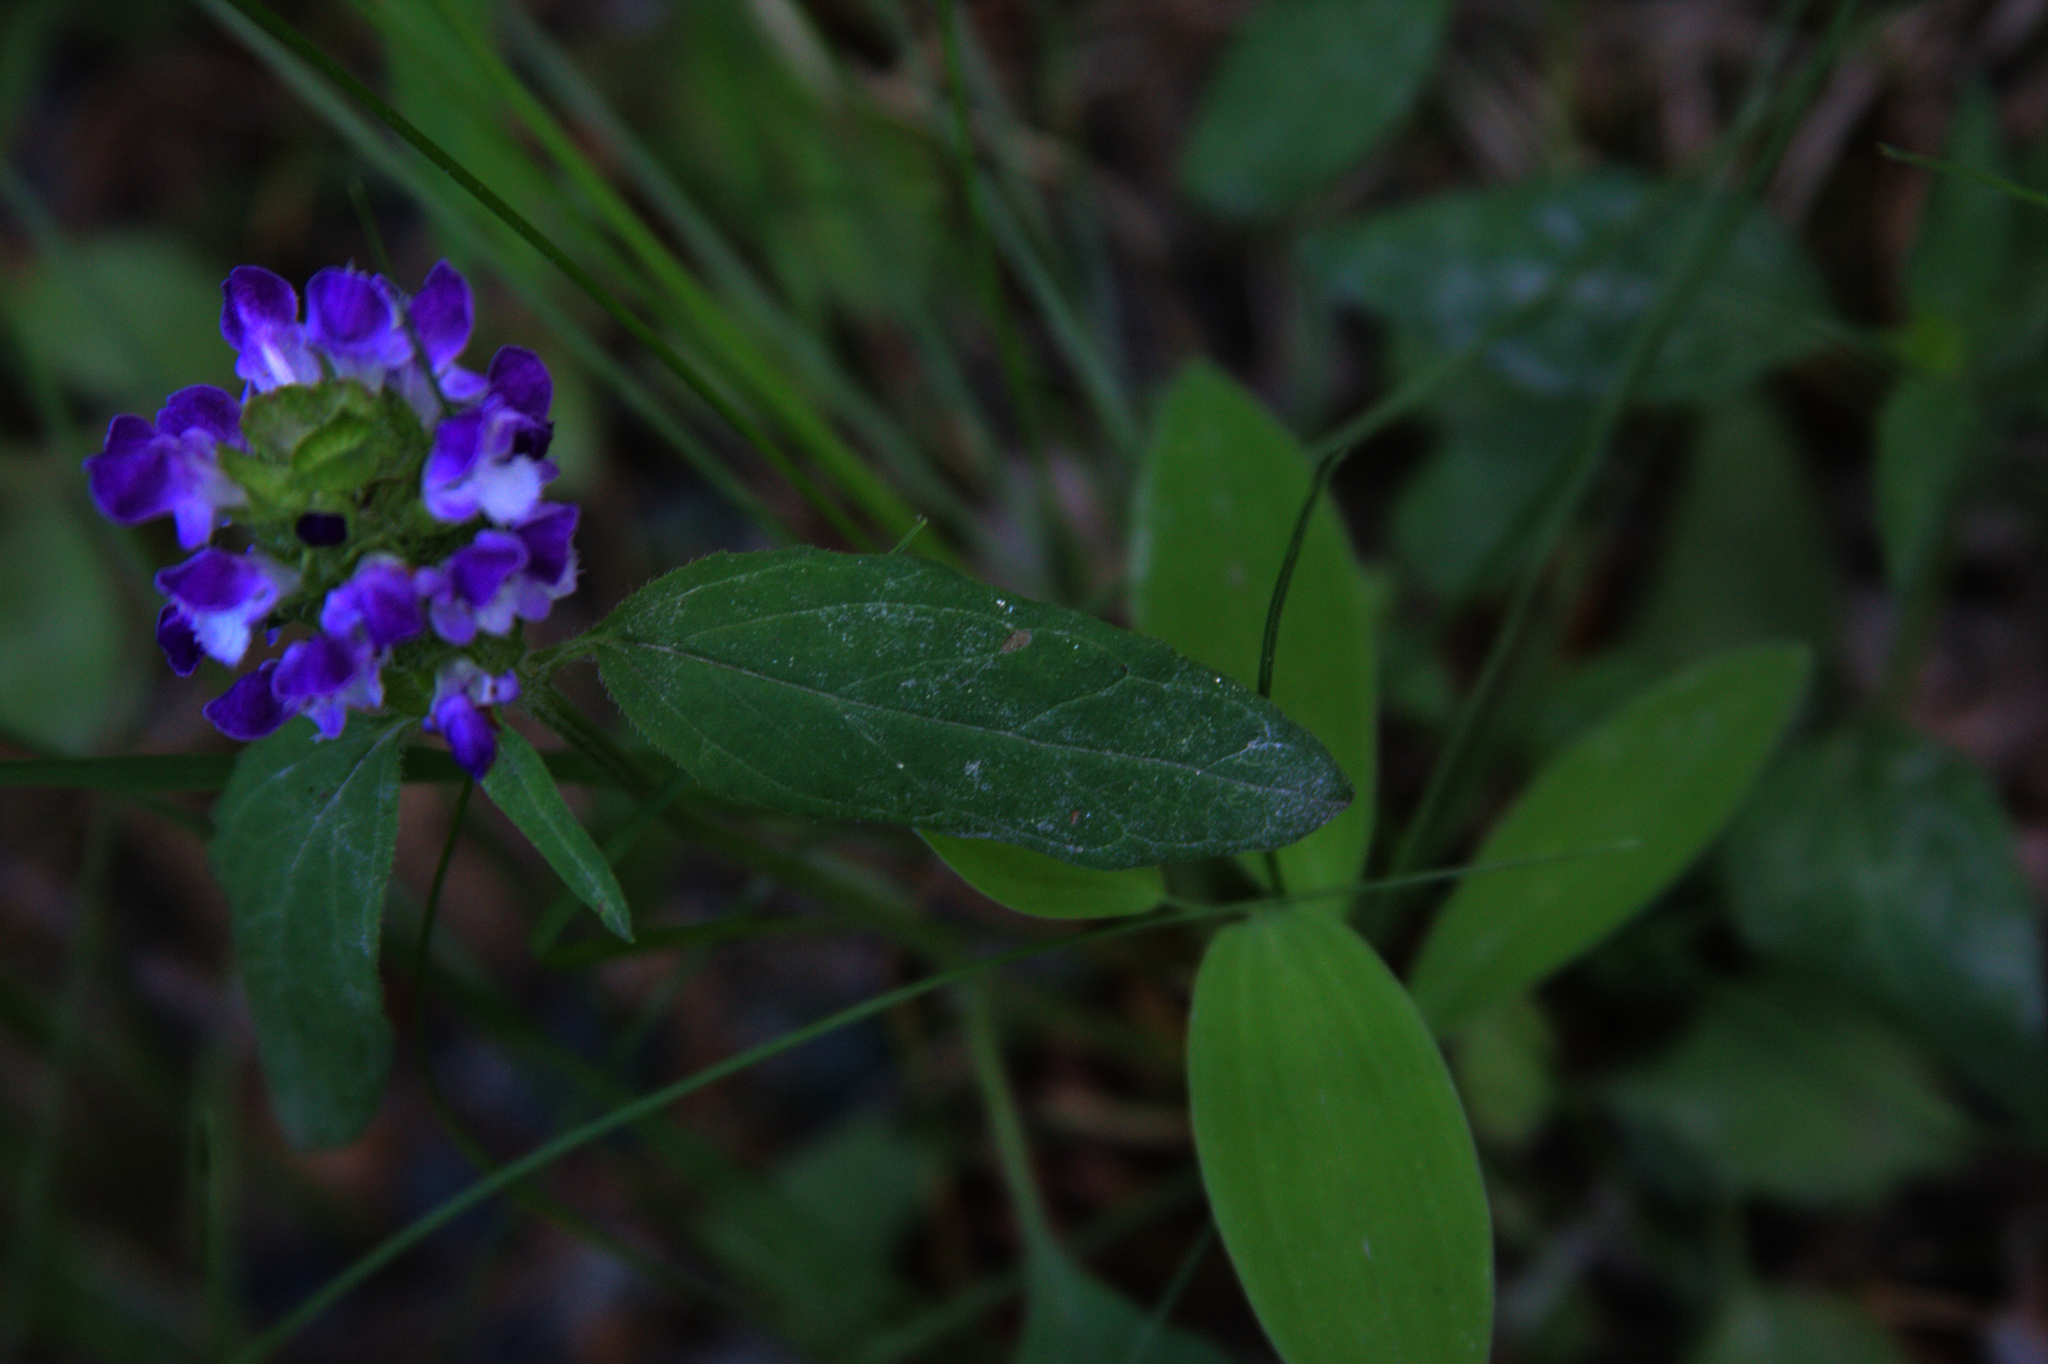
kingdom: Plantae
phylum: Tracheophyta
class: Magnoliopsida
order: Lamiales
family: Lamiaceae
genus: Prunella
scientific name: Prunella vulgaris
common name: Heal-all
